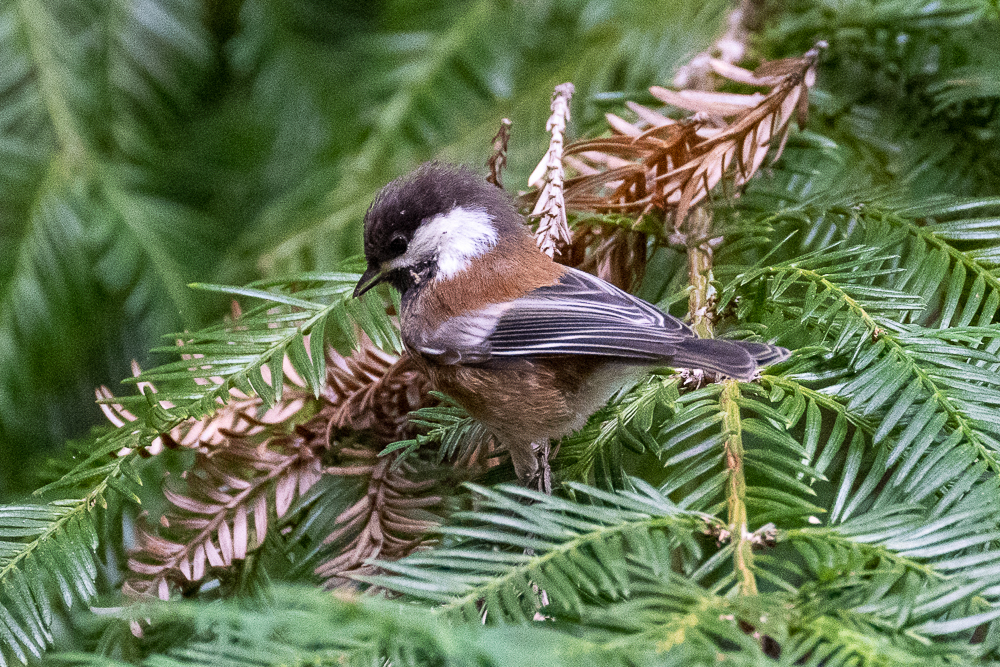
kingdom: Animalia
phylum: Chordata
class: Aves
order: Passeriformes
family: Paridae
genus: Poecile
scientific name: Poecile rufescens
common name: Chestnut-backed chickadee
